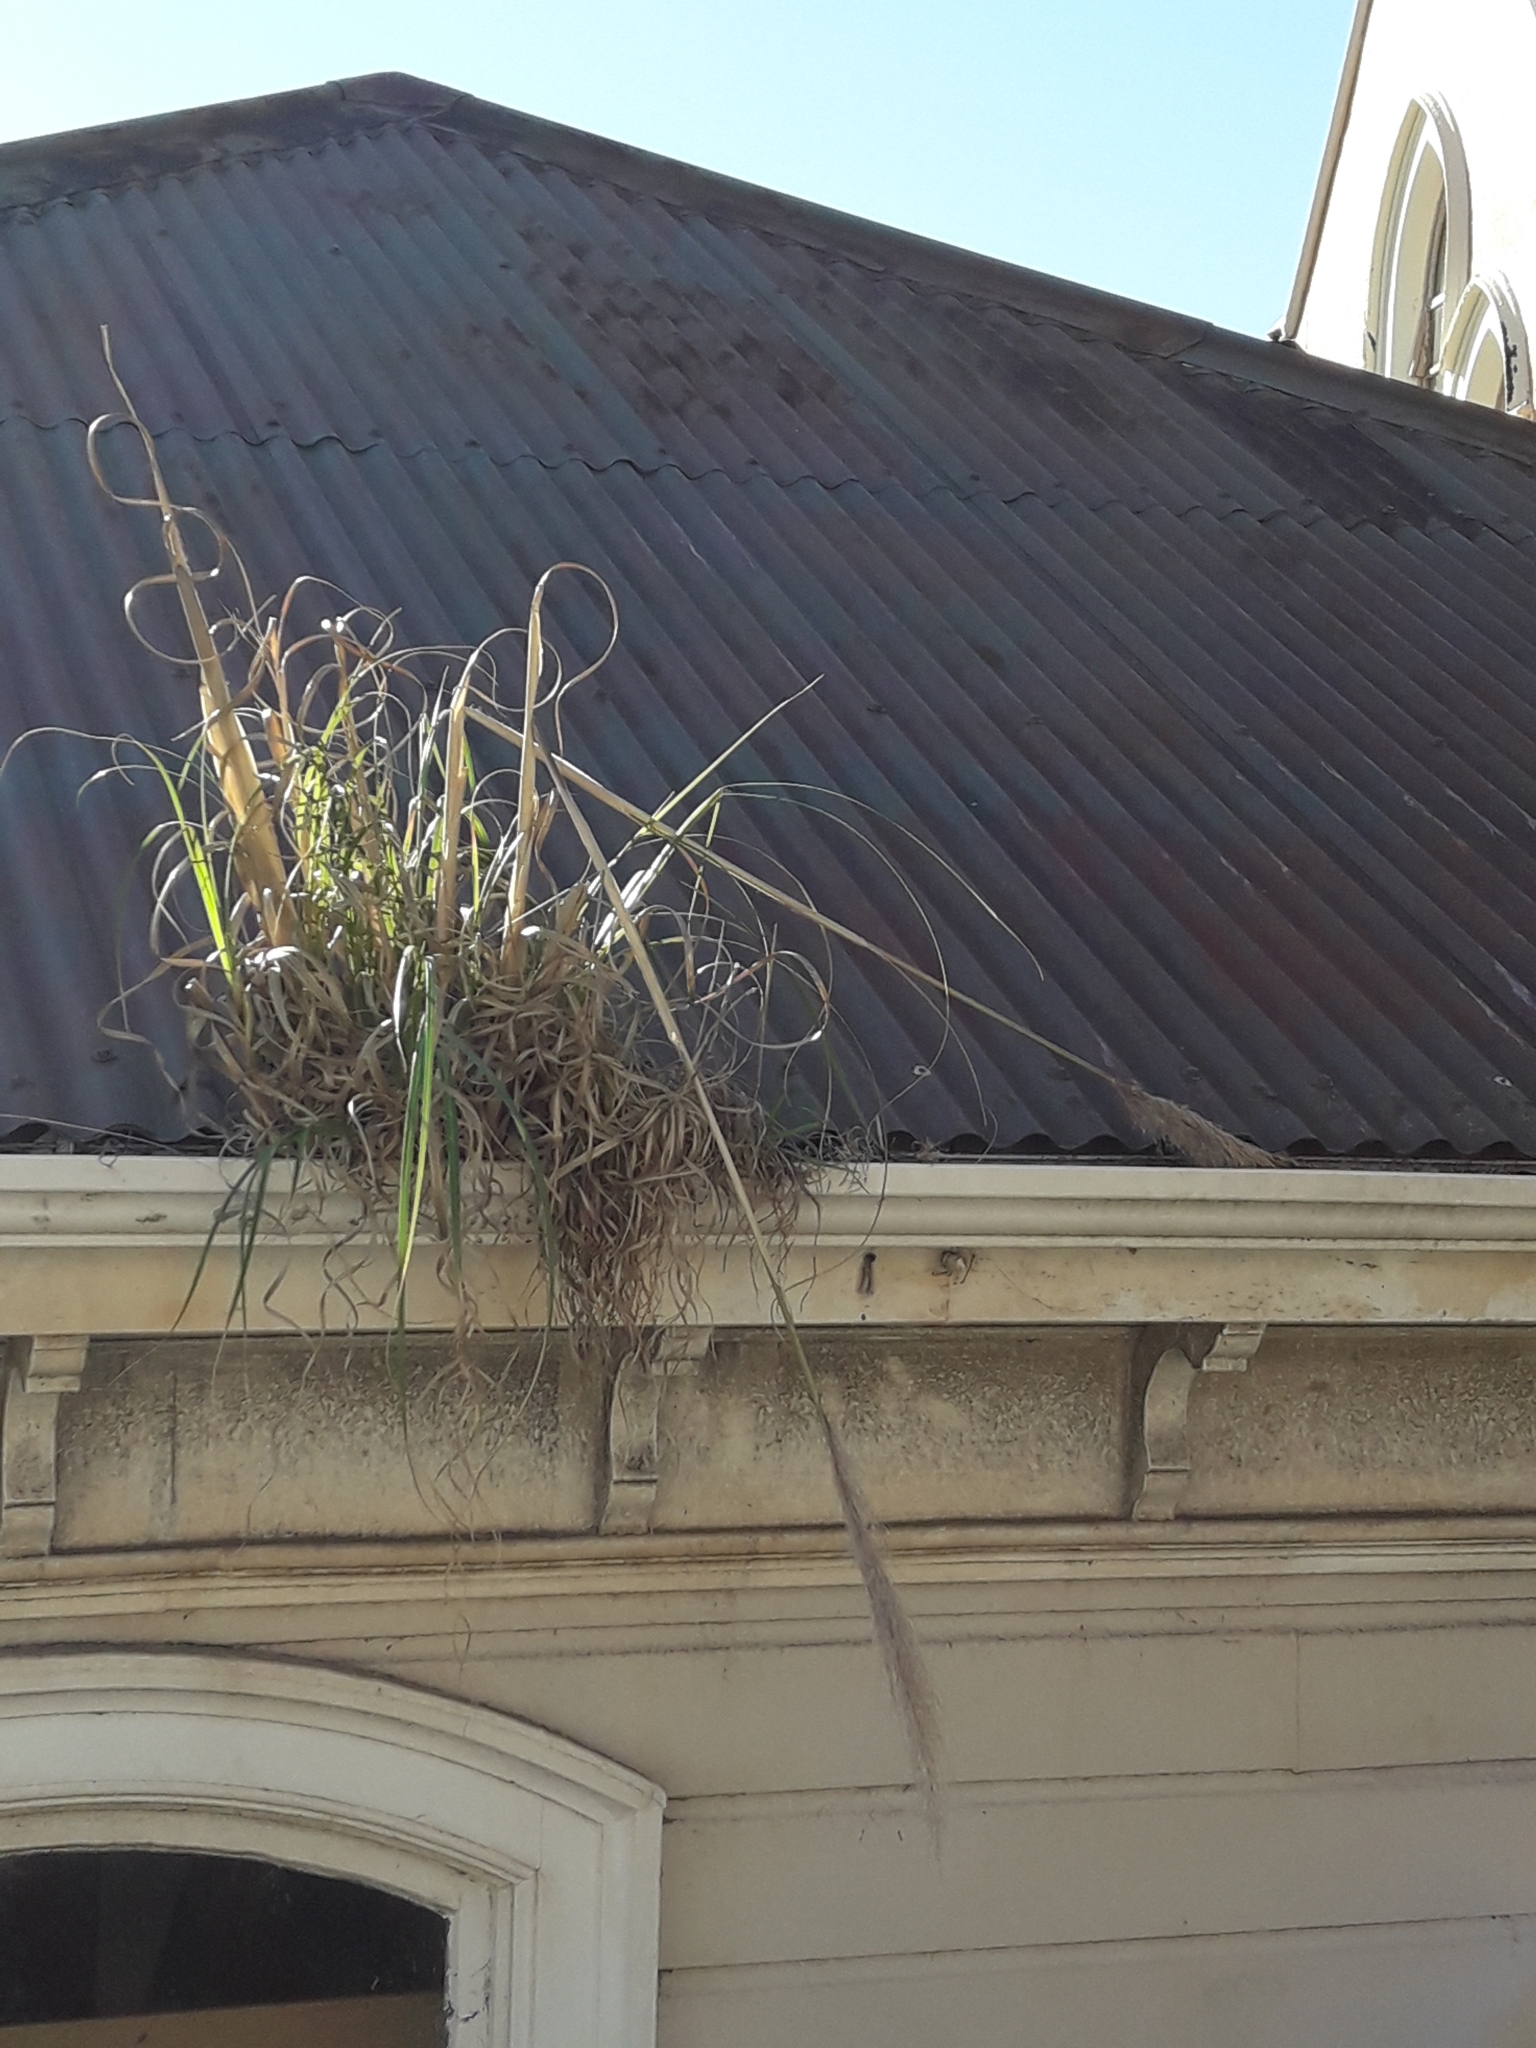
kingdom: Plantae
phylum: Tracheophyta
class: Liliopsida
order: Poales
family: Poaceae
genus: Cortaderia
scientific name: Cortaderia selloana
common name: Uruguayan pampas grass
